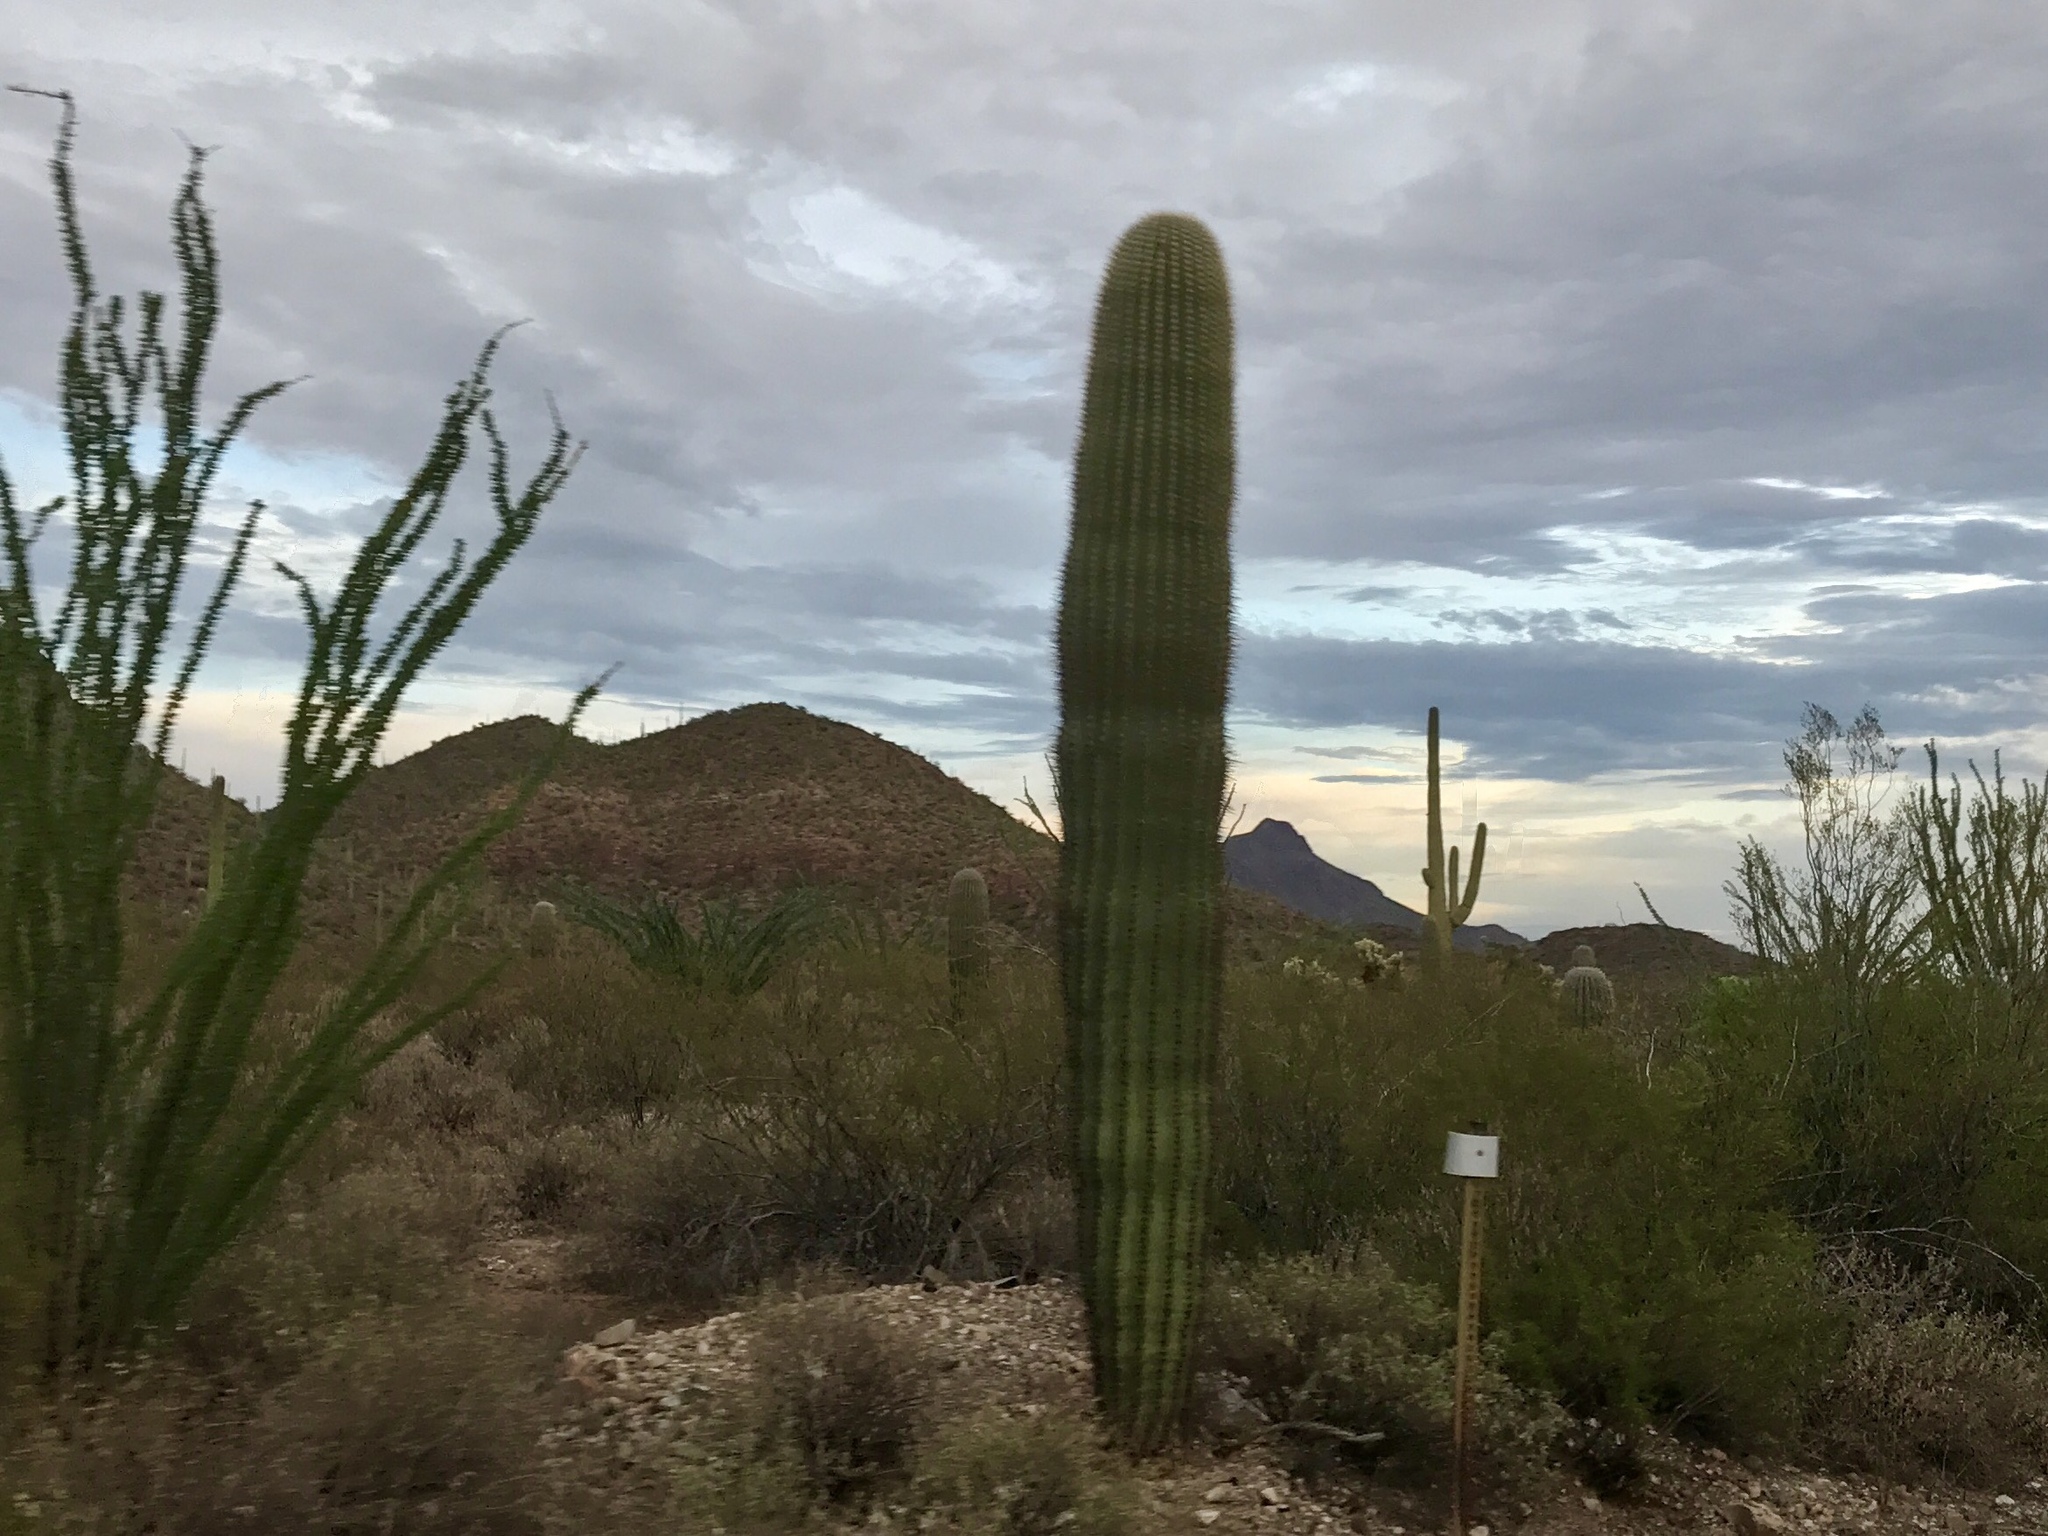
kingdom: Plantae
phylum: Tracheophyta
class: Magnoliopsida
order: Caryophyllales
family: Cactaceae
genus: Carnegiea
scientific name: Carnegiea gigantea
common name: Saguaro
